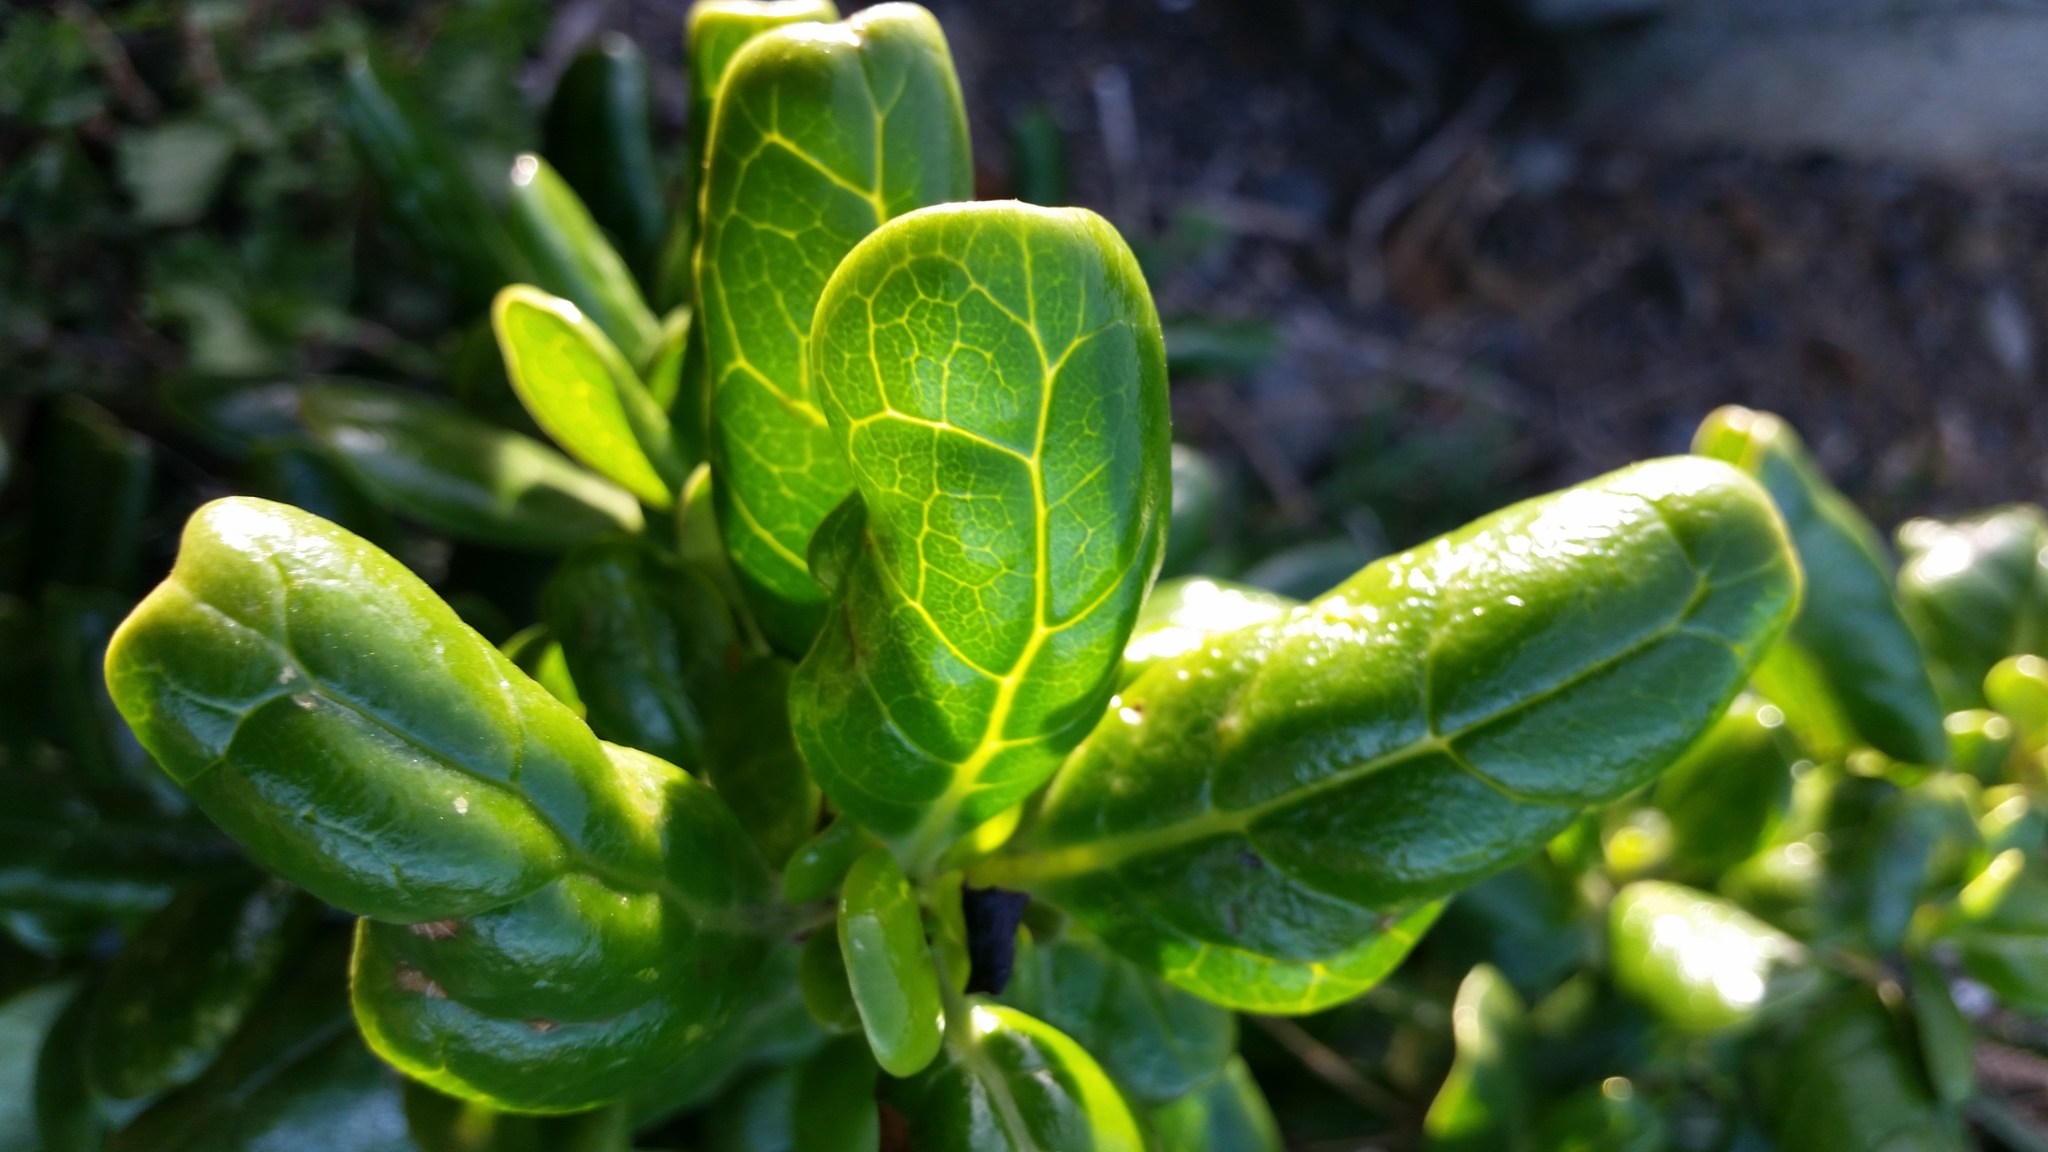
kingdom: Plantae
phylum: Tracheophyta
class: Magnoliopsida
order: Gentianales
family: Rubiaceae
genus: Coprosma
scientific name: Coprosma repens
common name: Tree bedstraw
